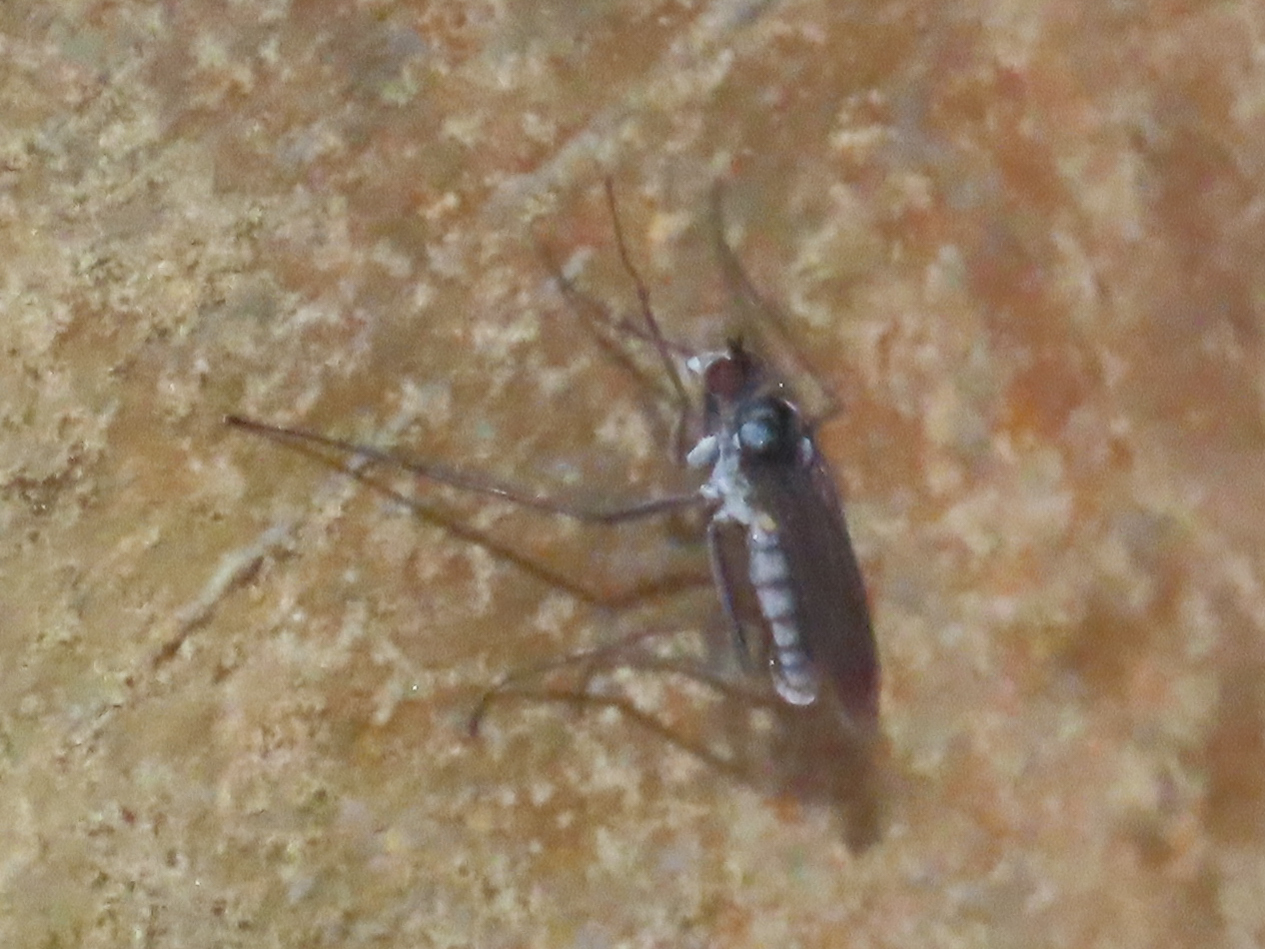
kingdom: Animalia
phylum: Arthropoda
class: Insecta
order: Diptera
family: Dolichopodidae
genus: Thambemyia
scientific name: Thambemyia borealis
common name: Fly
